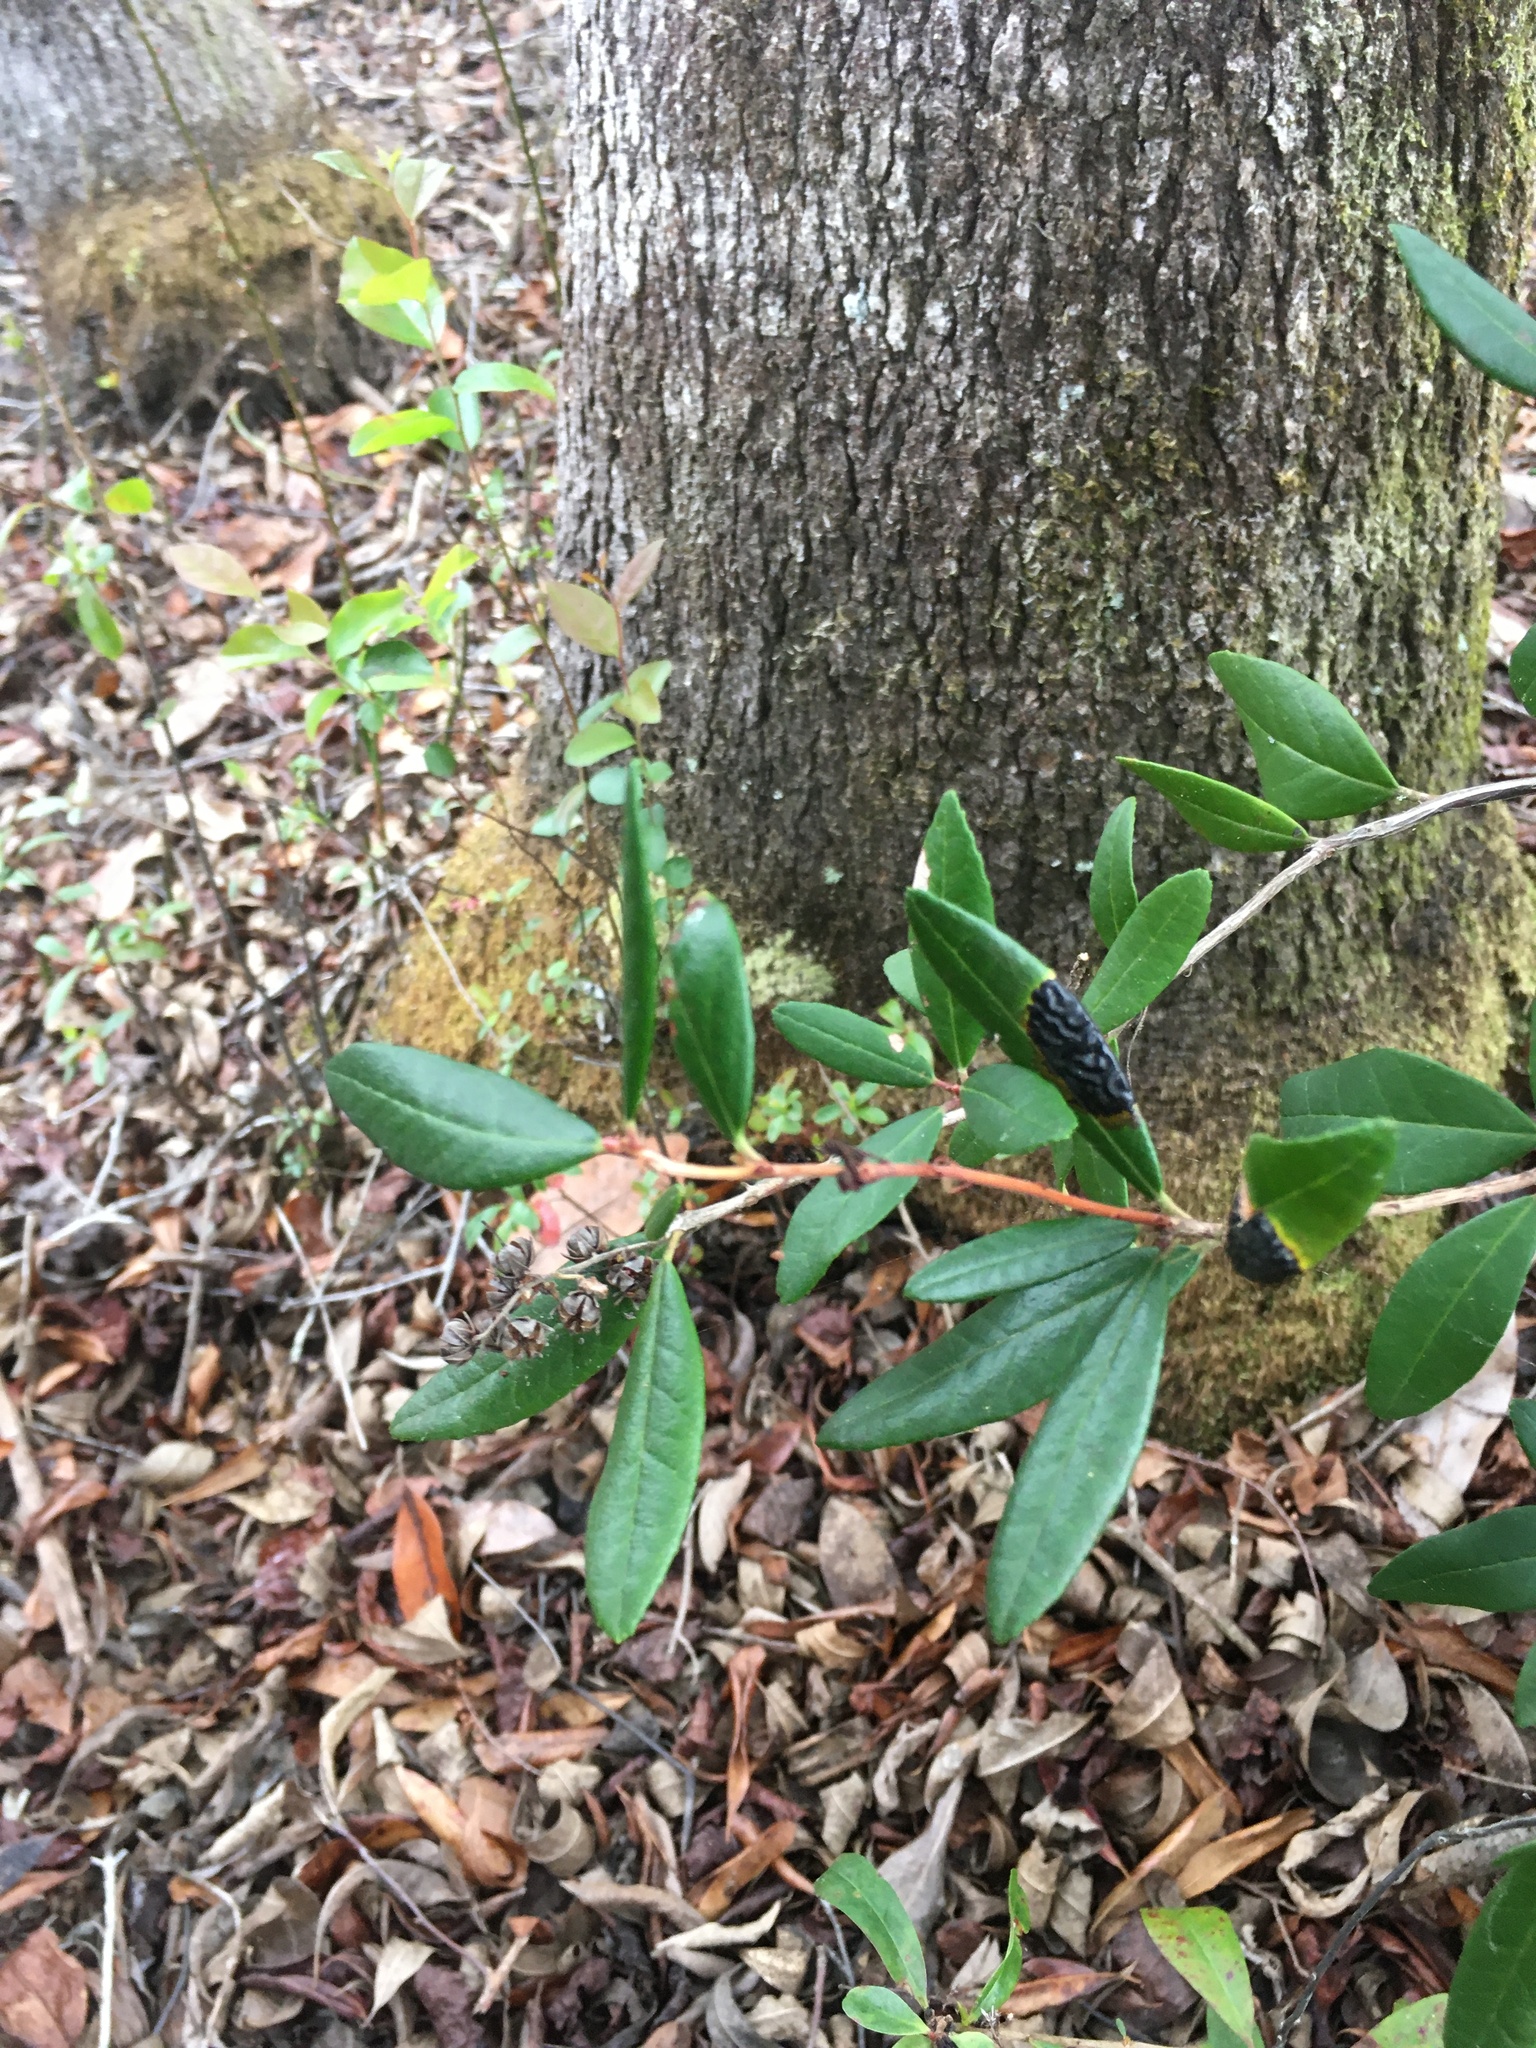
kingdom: Plantae
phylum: Tracheophyta
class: Magnoliopsida
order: Ericales
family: Ericaceae
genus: Pieris
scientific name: Pieris phillyreifolia
